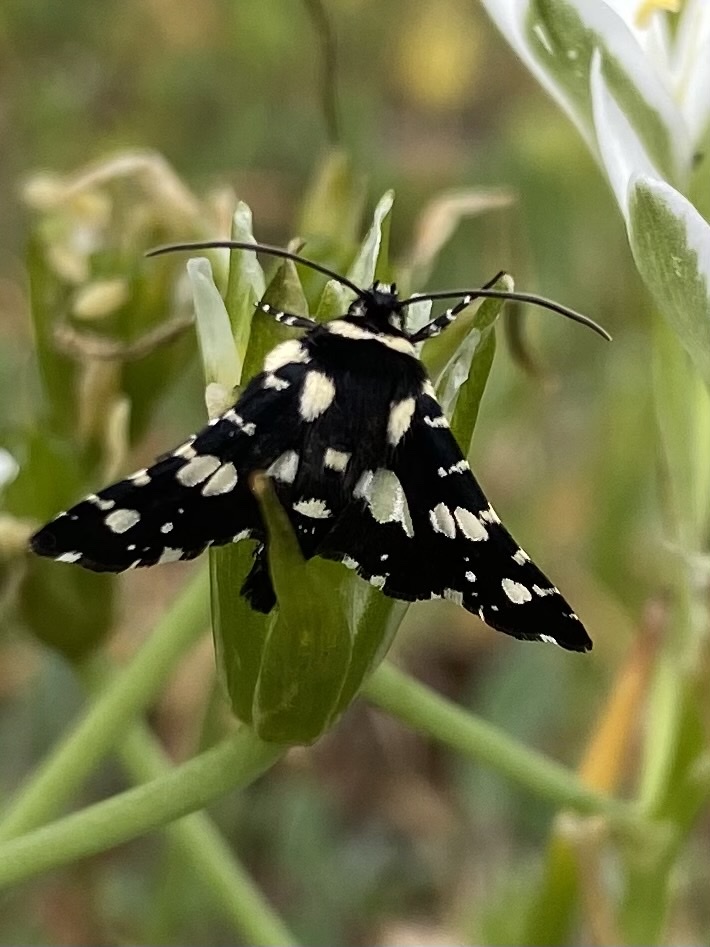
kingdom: Animalia
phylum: Arthropoda
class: Insecta
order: Lepidoptera
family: Thyrididae
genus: Pseudothyris
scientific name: Pseudothyris sepulchralis
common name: Mournful thyris moth
